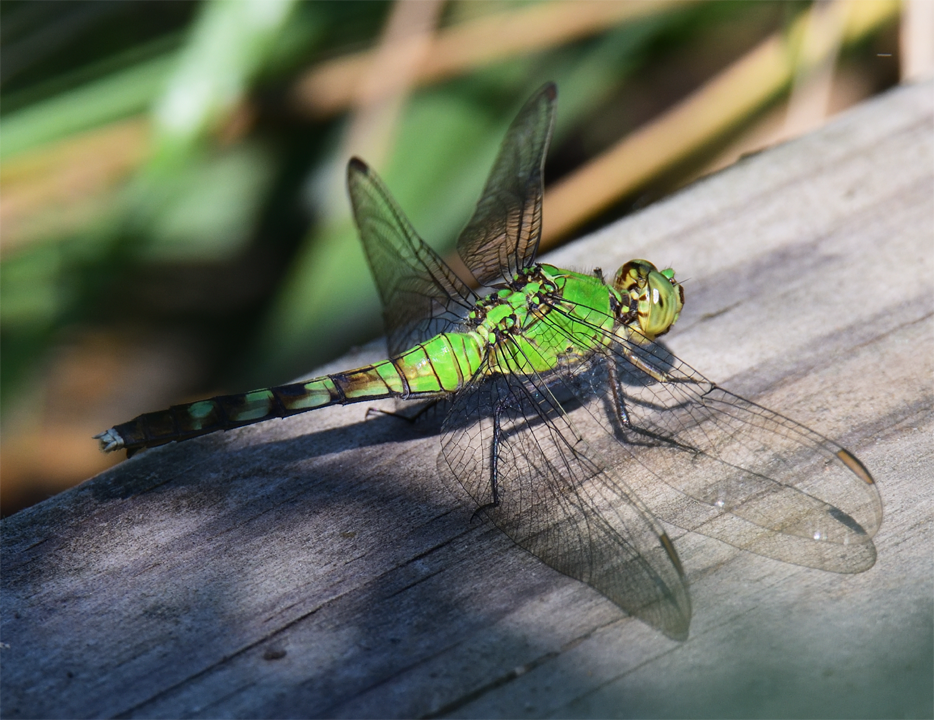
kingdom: Animalia
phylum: Arthropoda
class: Insecta
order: Odonata
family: Libellulidae
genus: Erythemis
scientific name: Erythemis simplicicollis
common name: Eastern pondhawk
